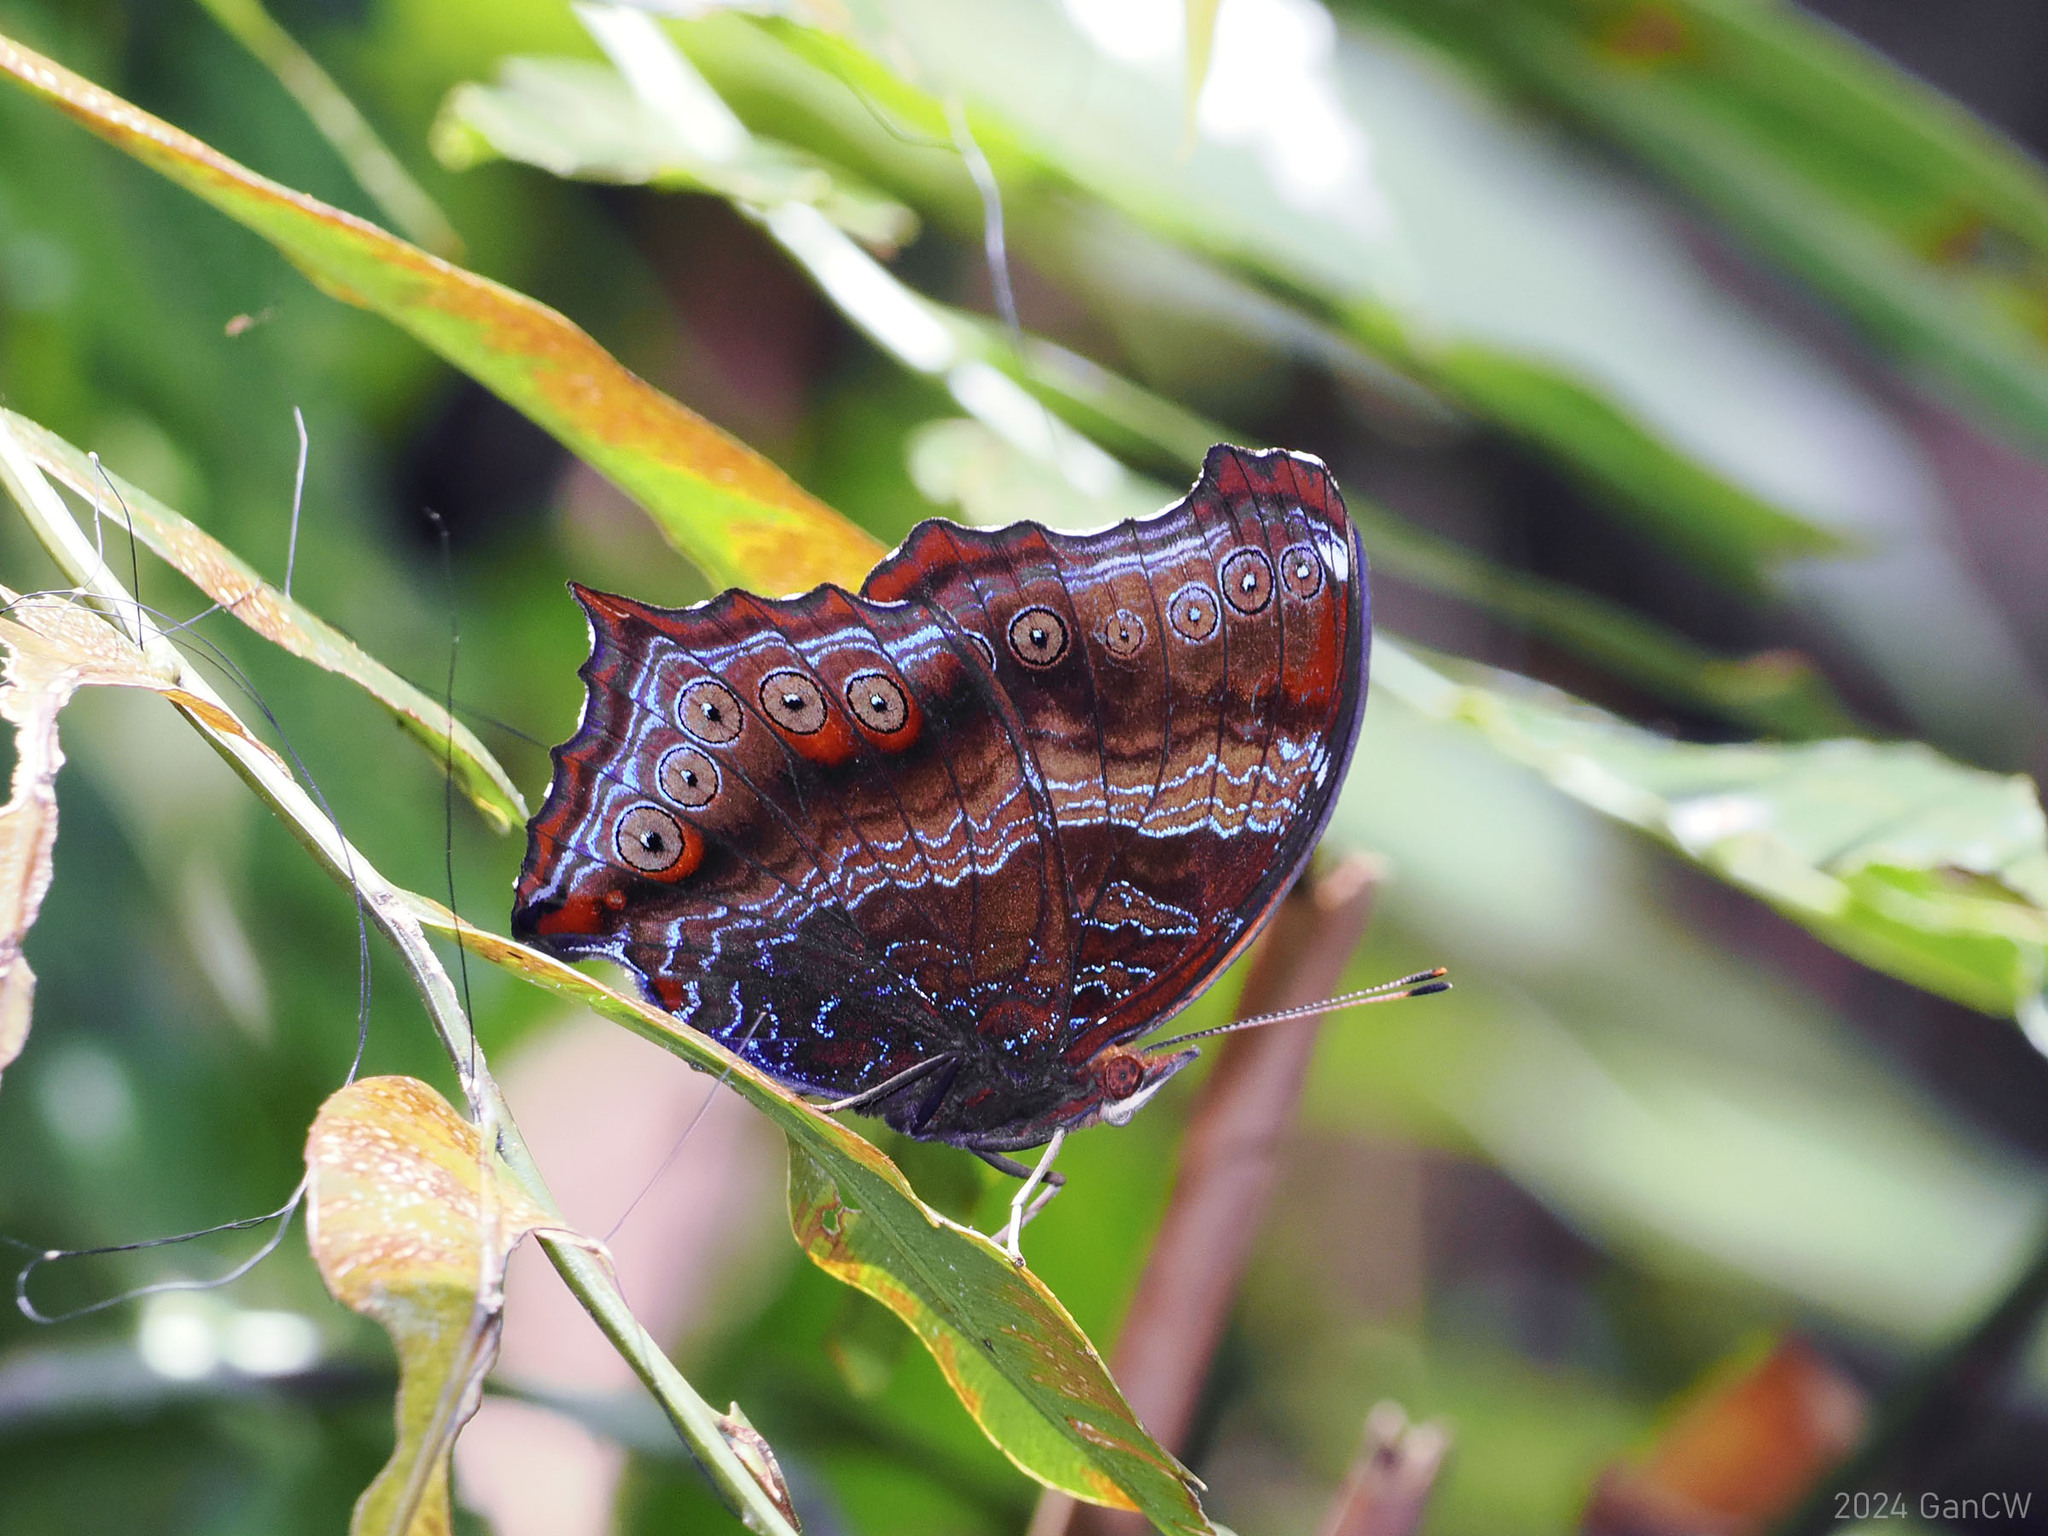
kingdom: Animalia
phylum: Arthropoda
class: Insecta
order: Lepidoptera
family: Nymphalidae
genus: Rhinopalpa
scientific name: Rhinopalpa polynice
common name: Wizard
